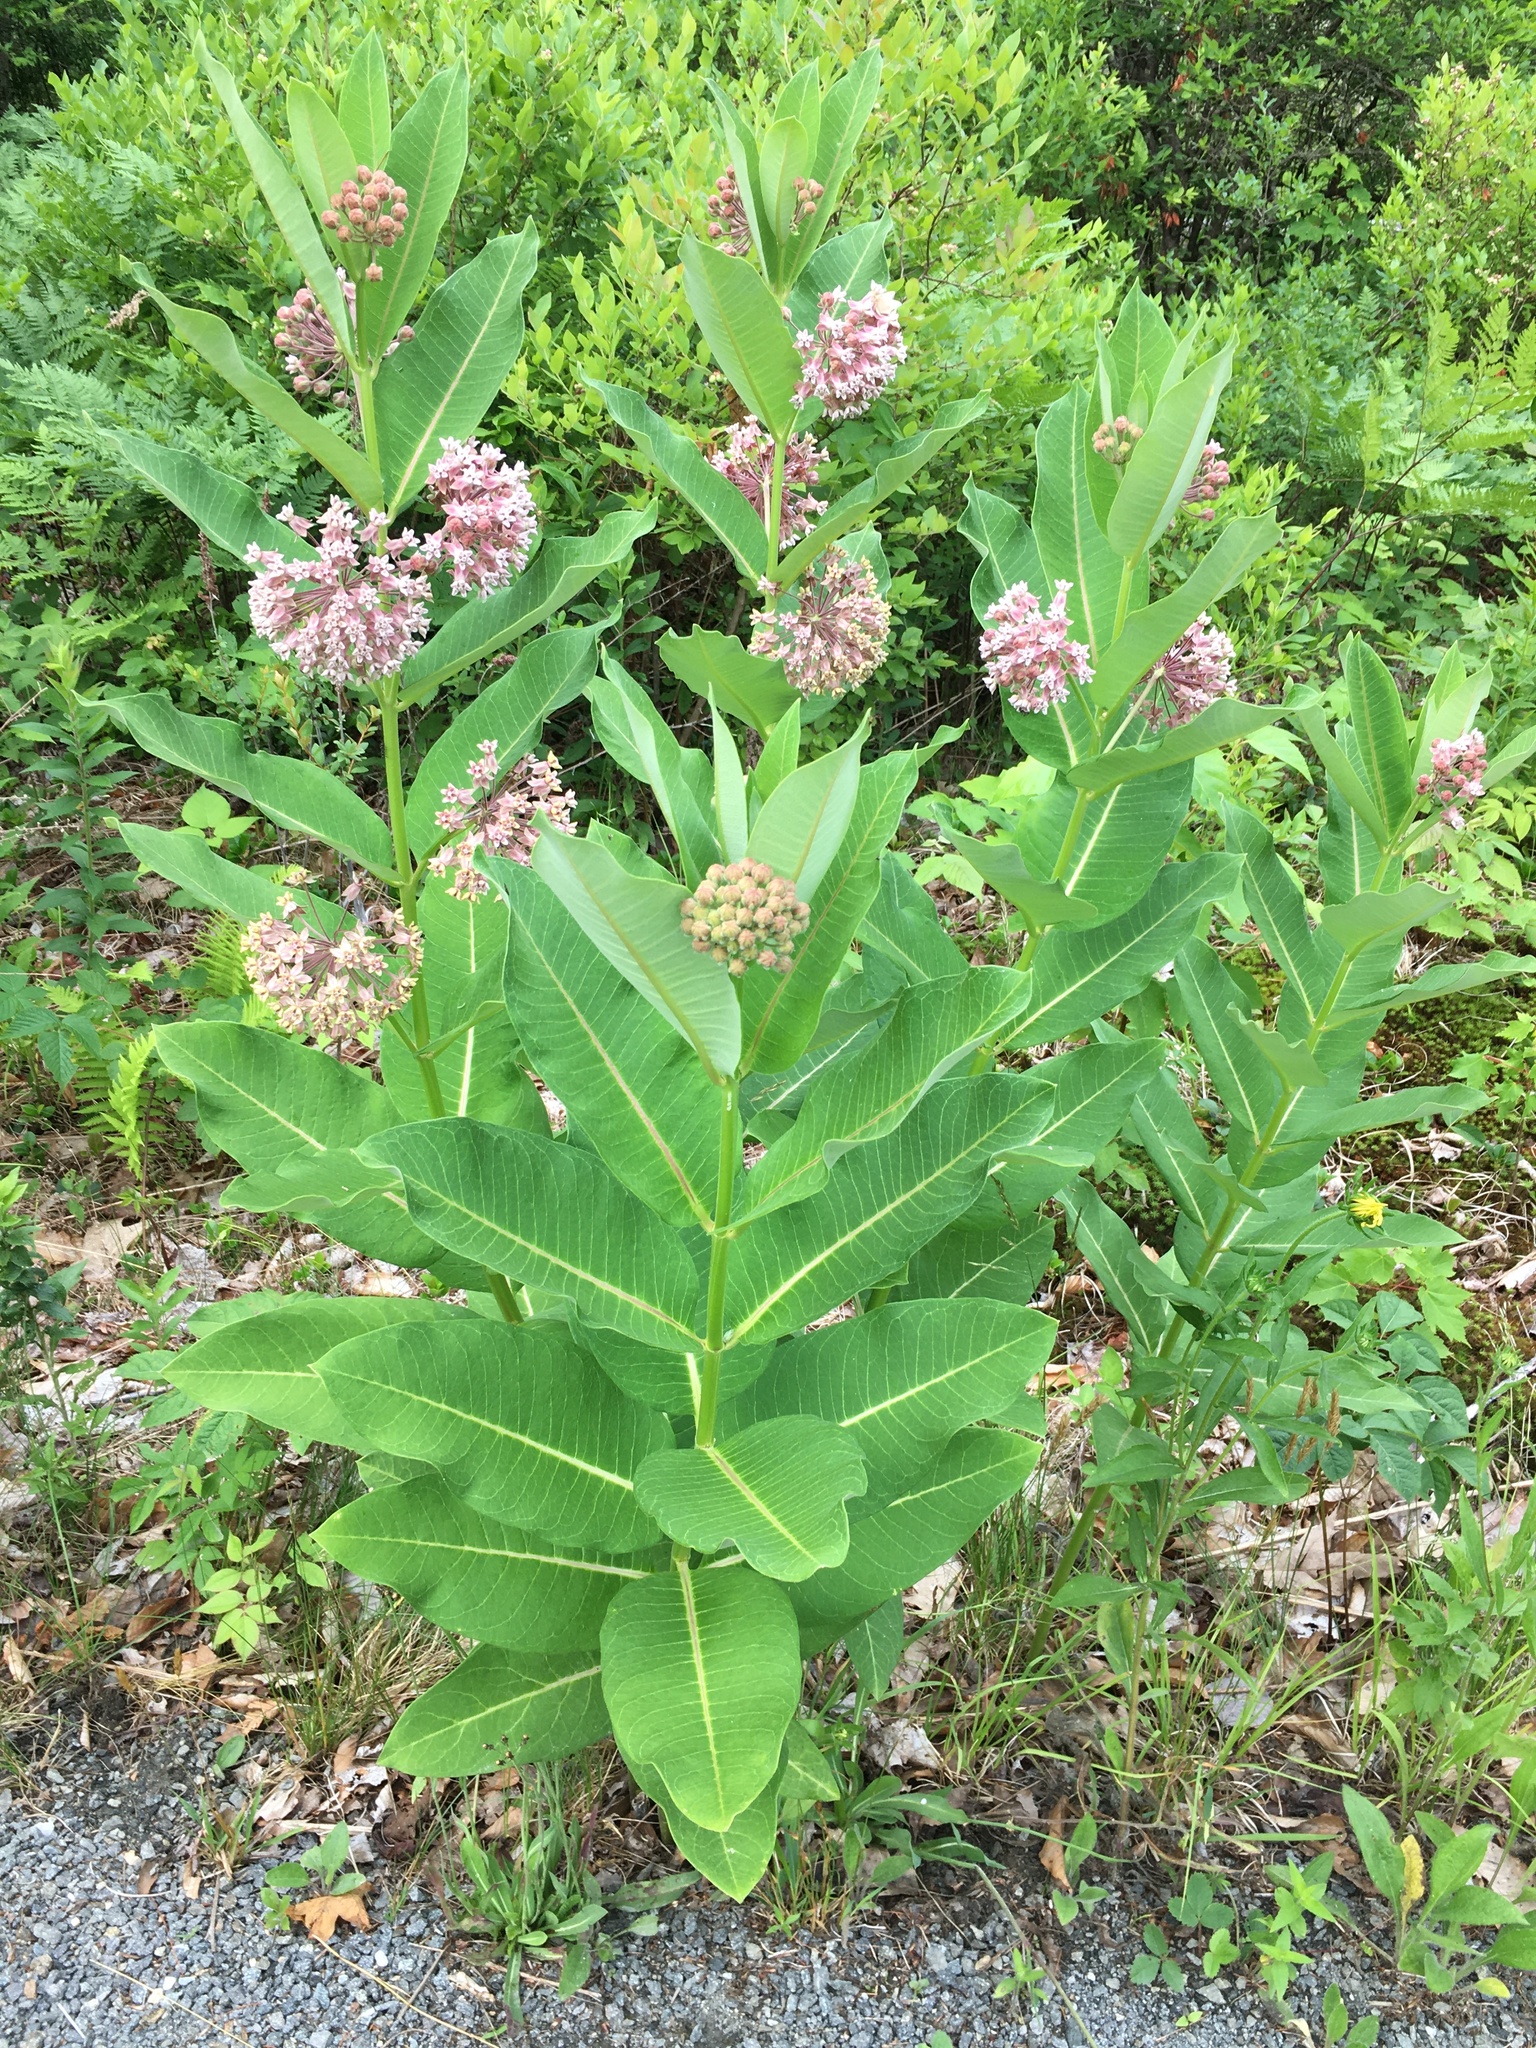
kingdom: Plantae
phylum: Tracheophyta
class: Magnoliopsida
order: Gentianales
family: Apocynaceae
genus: Asclepias
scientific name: Asclepias syriaca
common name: Common milkweed
